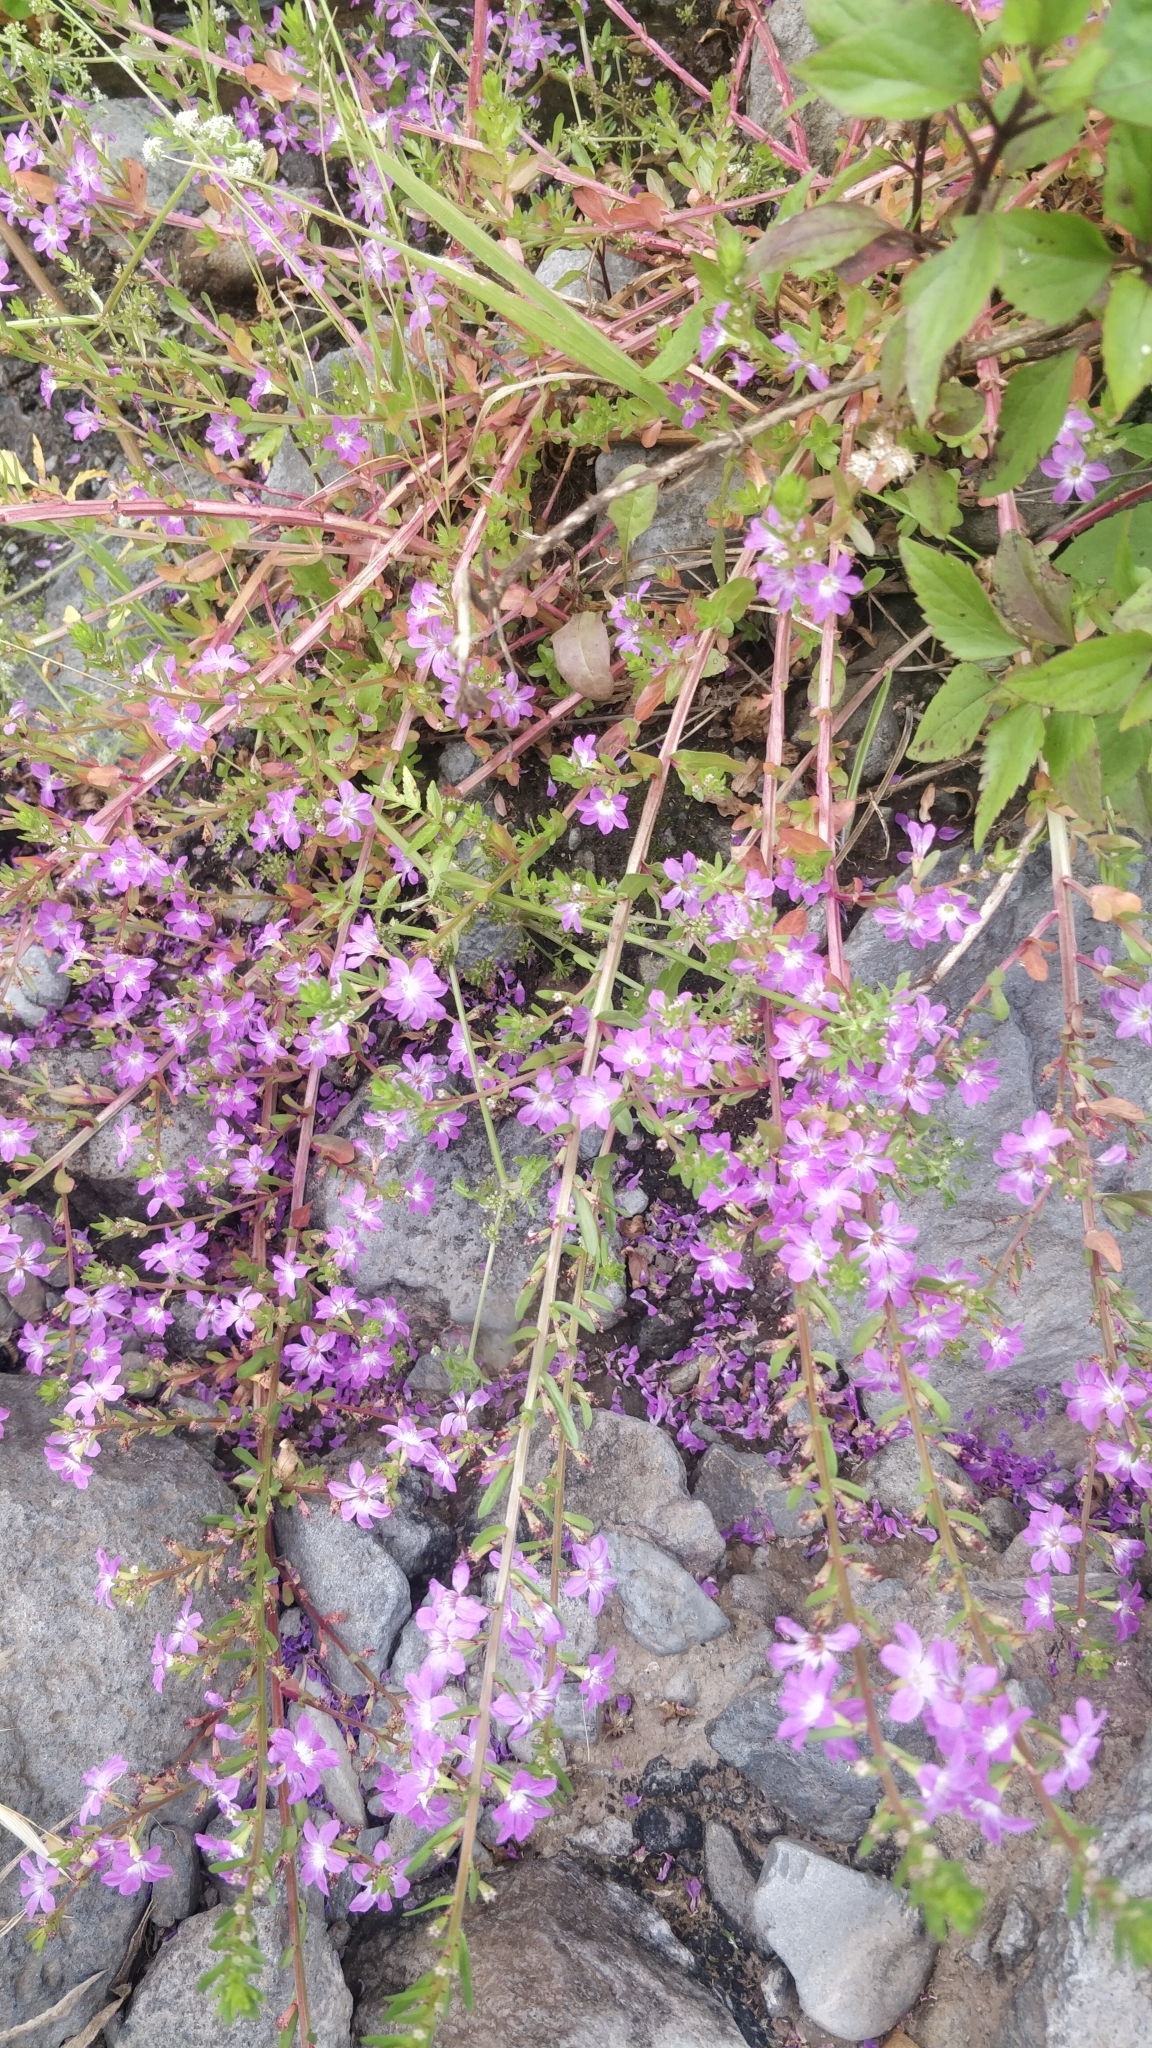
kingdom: Plantae
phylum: Tracheophyta
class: Magnoliopsida
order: Myrtales
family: Lythraceae
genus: Lythrum
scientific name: Lythrum junceum
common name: False grass-poly
